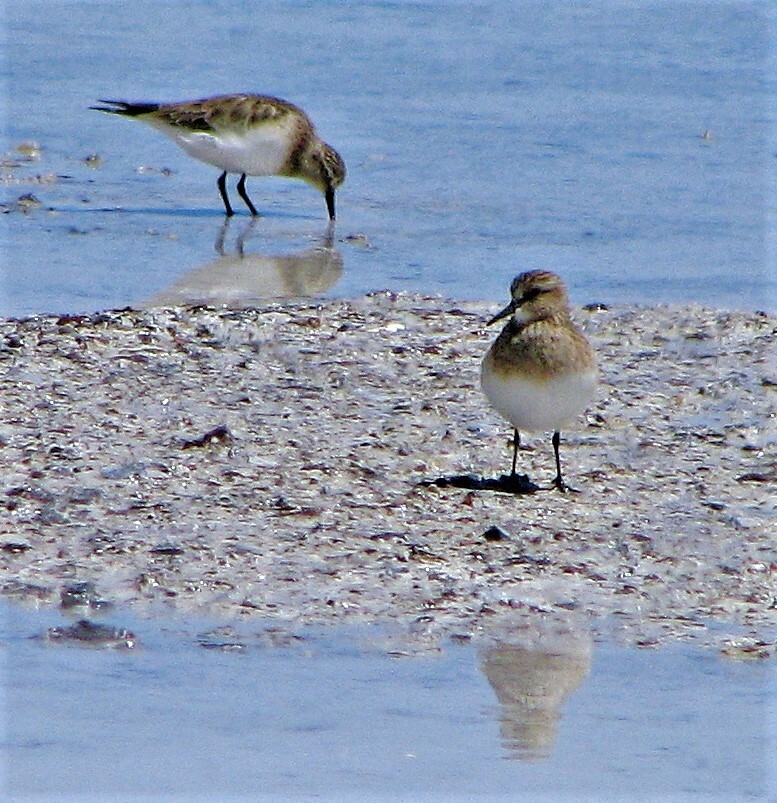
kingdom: Animalia
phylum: Chordata
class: Aves
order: Charadriiformes
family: Scolopacidae
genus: Calidris
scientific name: Calidris bairdii
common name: Baird's sandpiper
